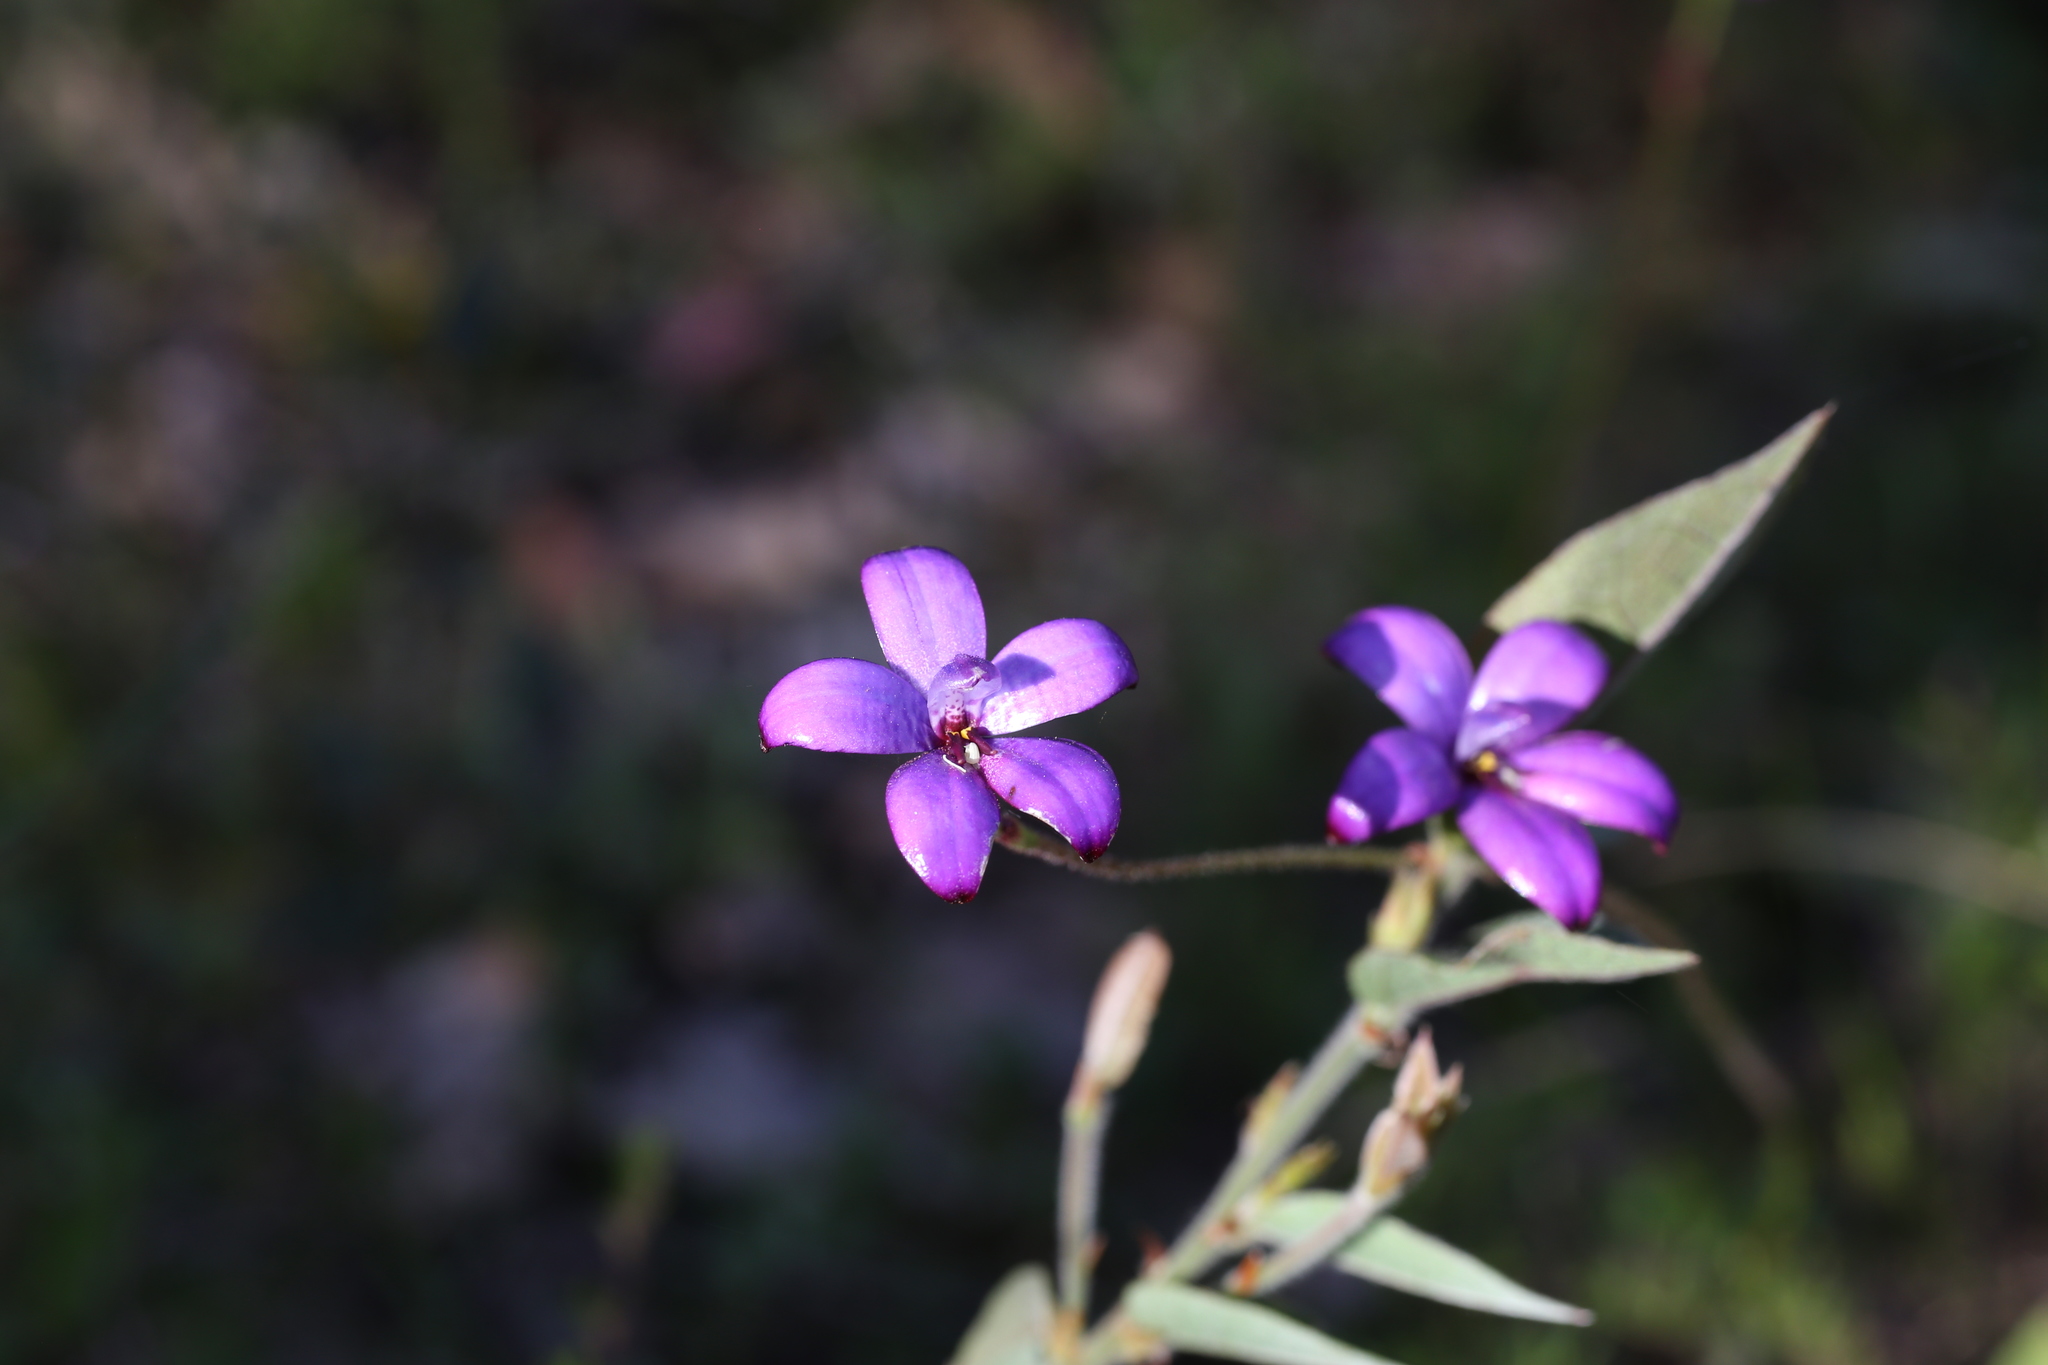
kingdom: Plantae
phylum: Tracheophyta
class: Liliopsida
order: Asparagales
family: Orchidaceae
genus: Caladenia
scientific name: Caladenia brunonis
